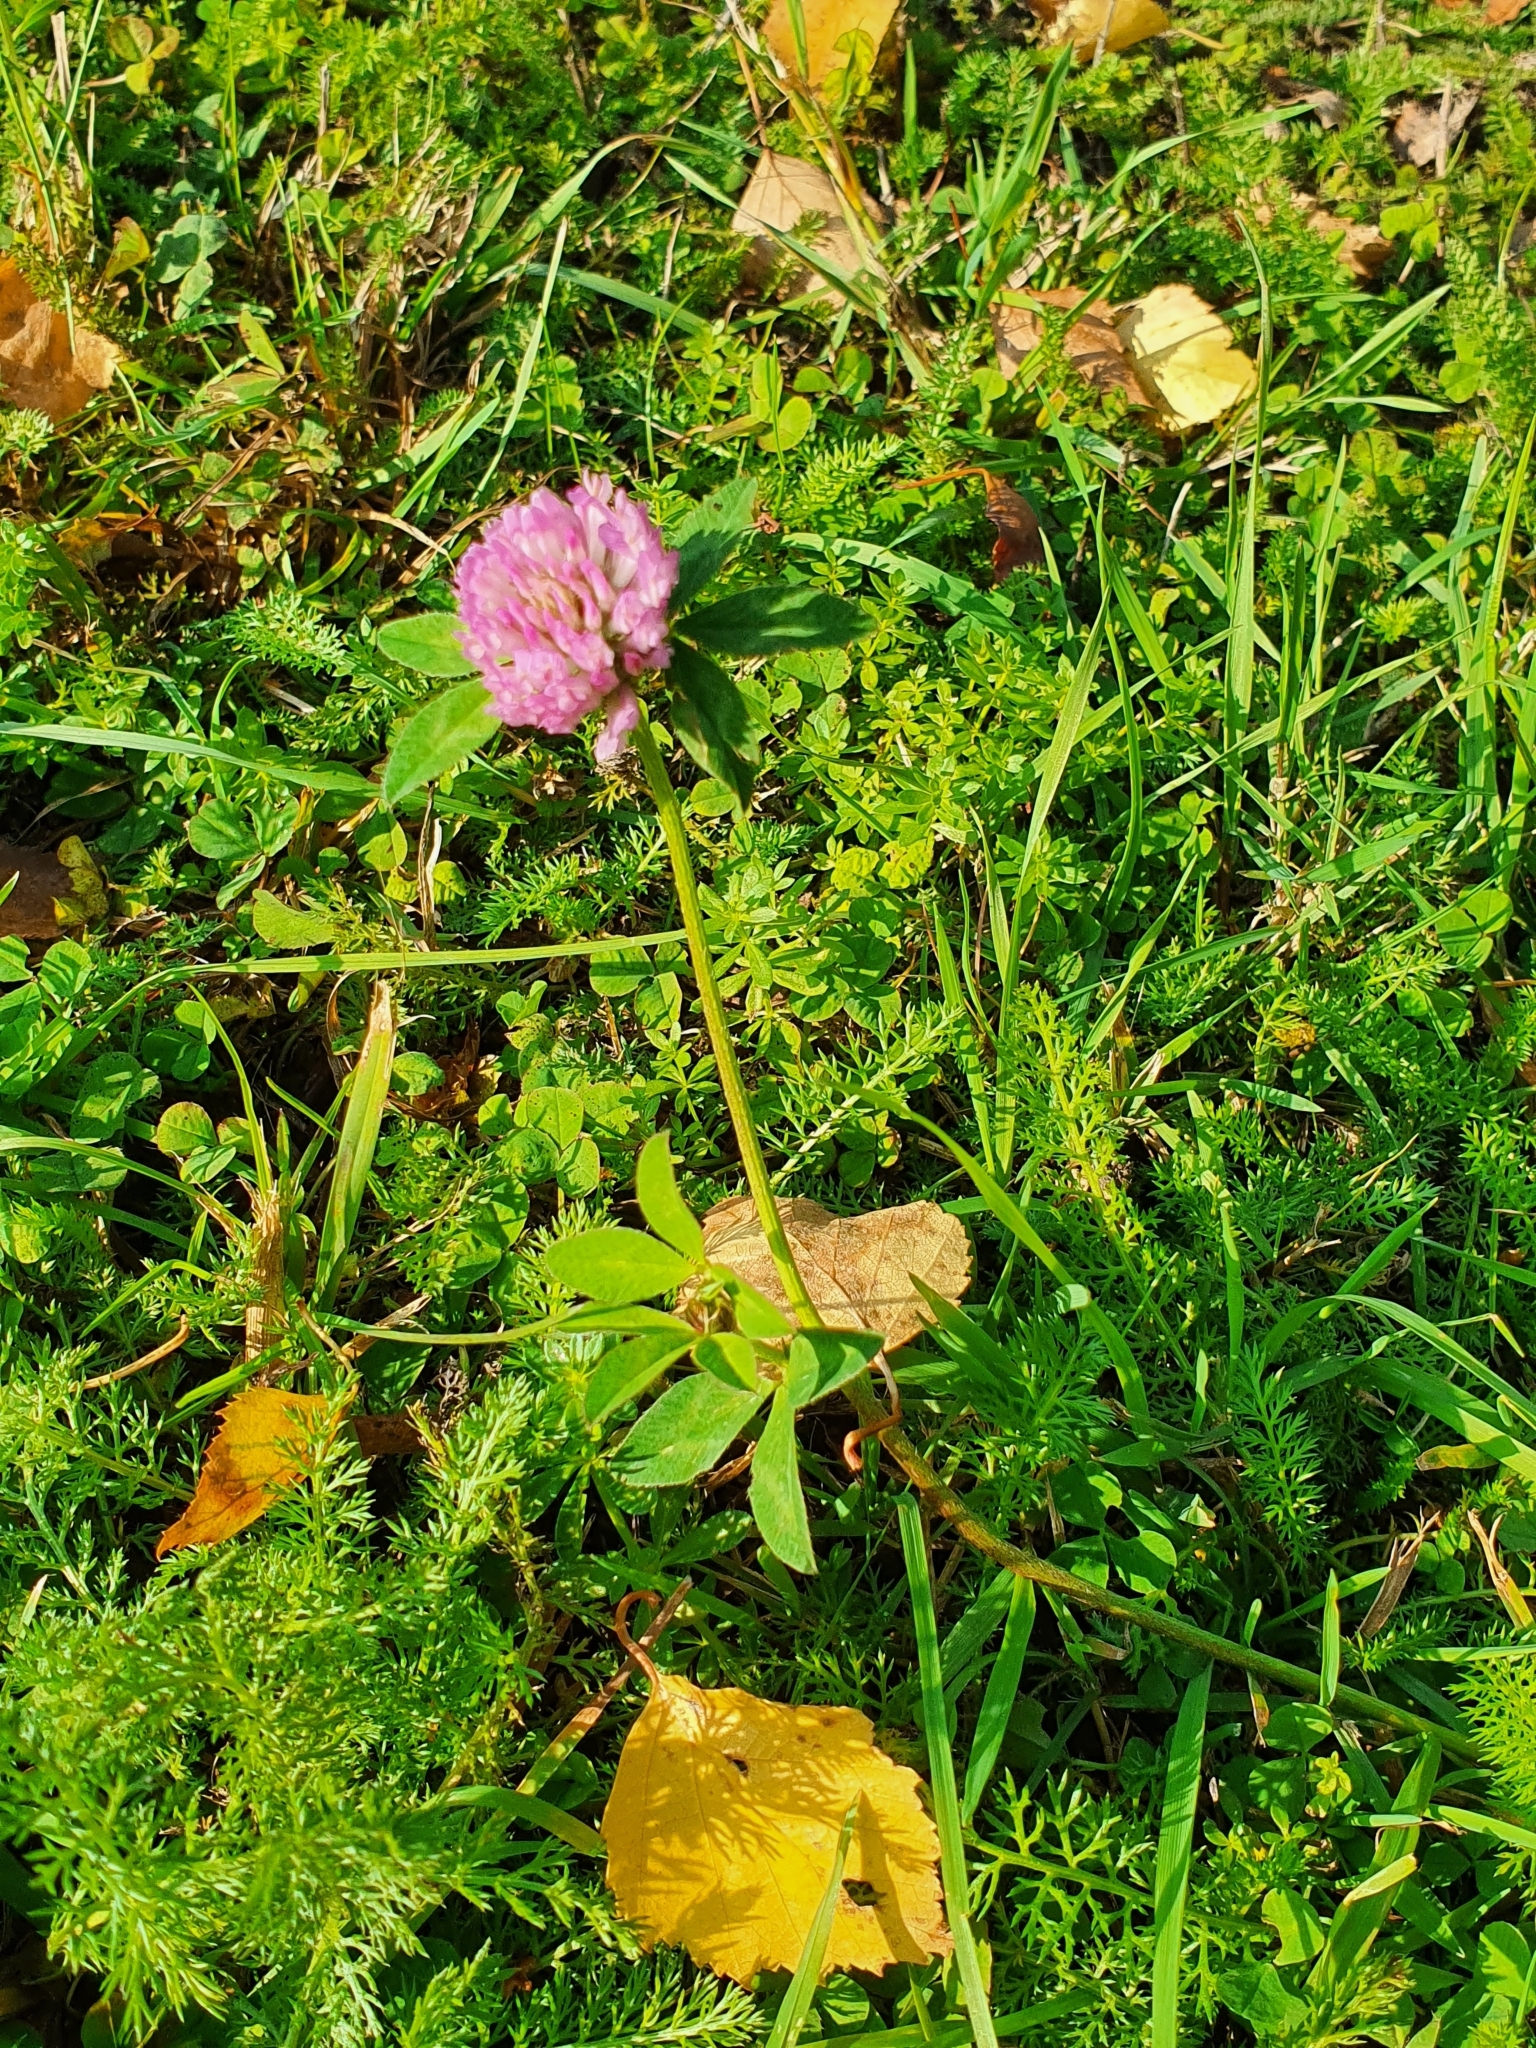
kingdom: Plantae
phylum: Tracheophyta
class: Magnoliopsida
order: Fabales
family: Fabaceae
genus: Trifolium
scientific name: Trifolium pratense
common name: Red clover
